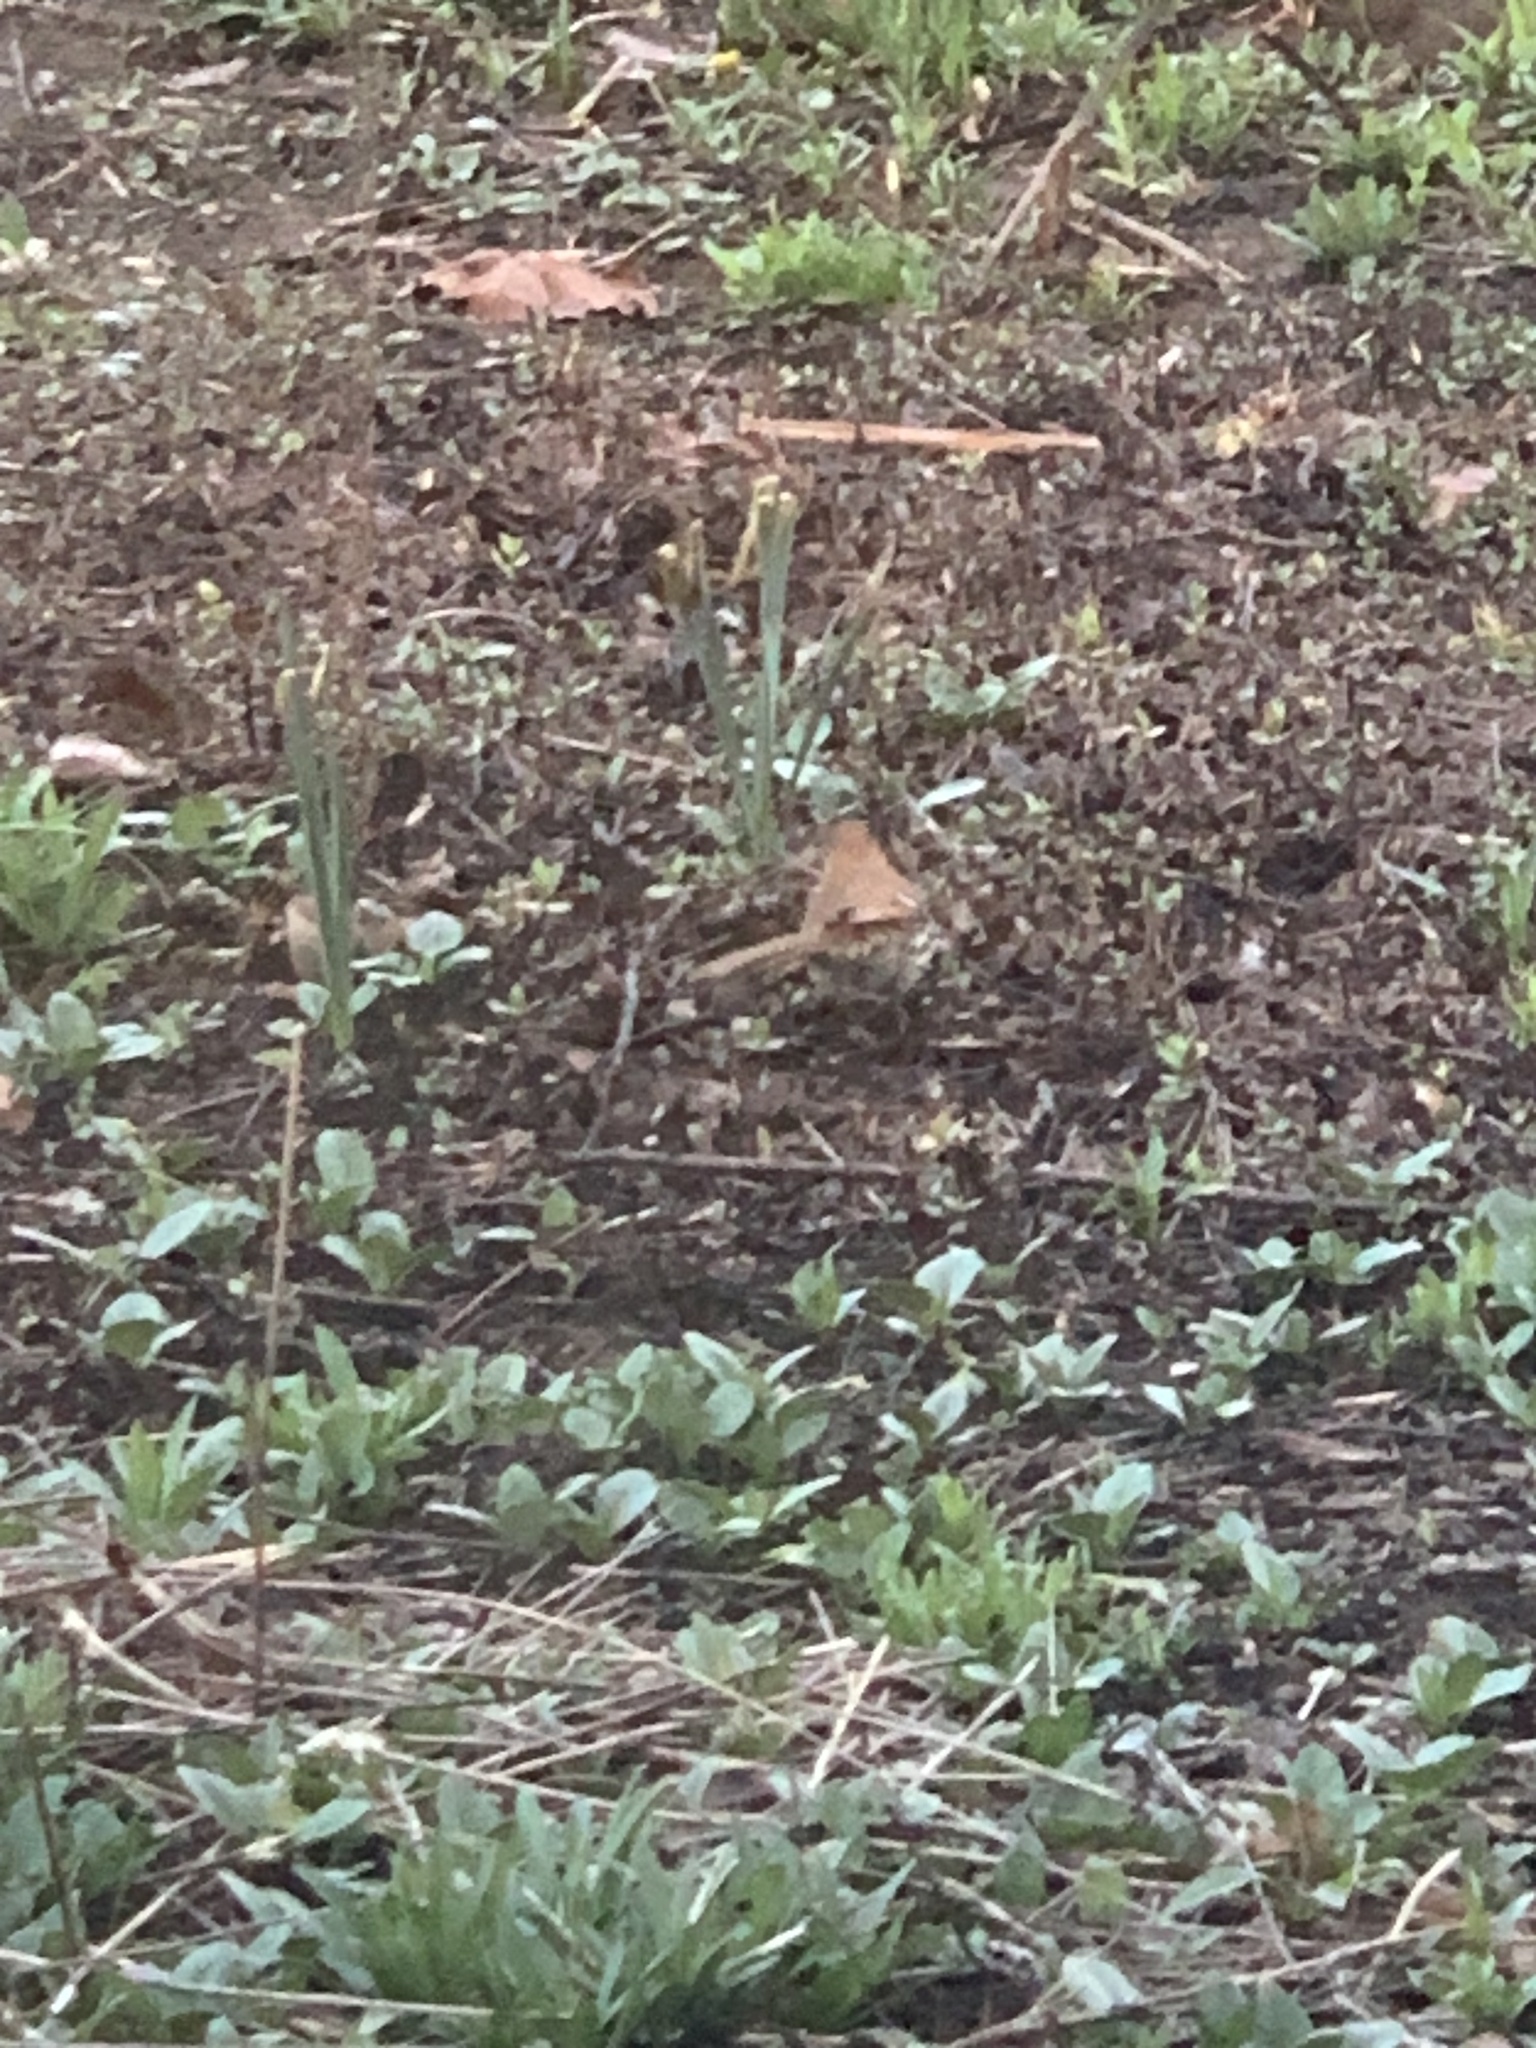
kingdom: Animalia
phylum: Chordata
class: Aves
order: Passeriformes
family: Mimidae
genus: Toxostoma
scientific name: Toxostoma rufum
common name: Brown thrasher
